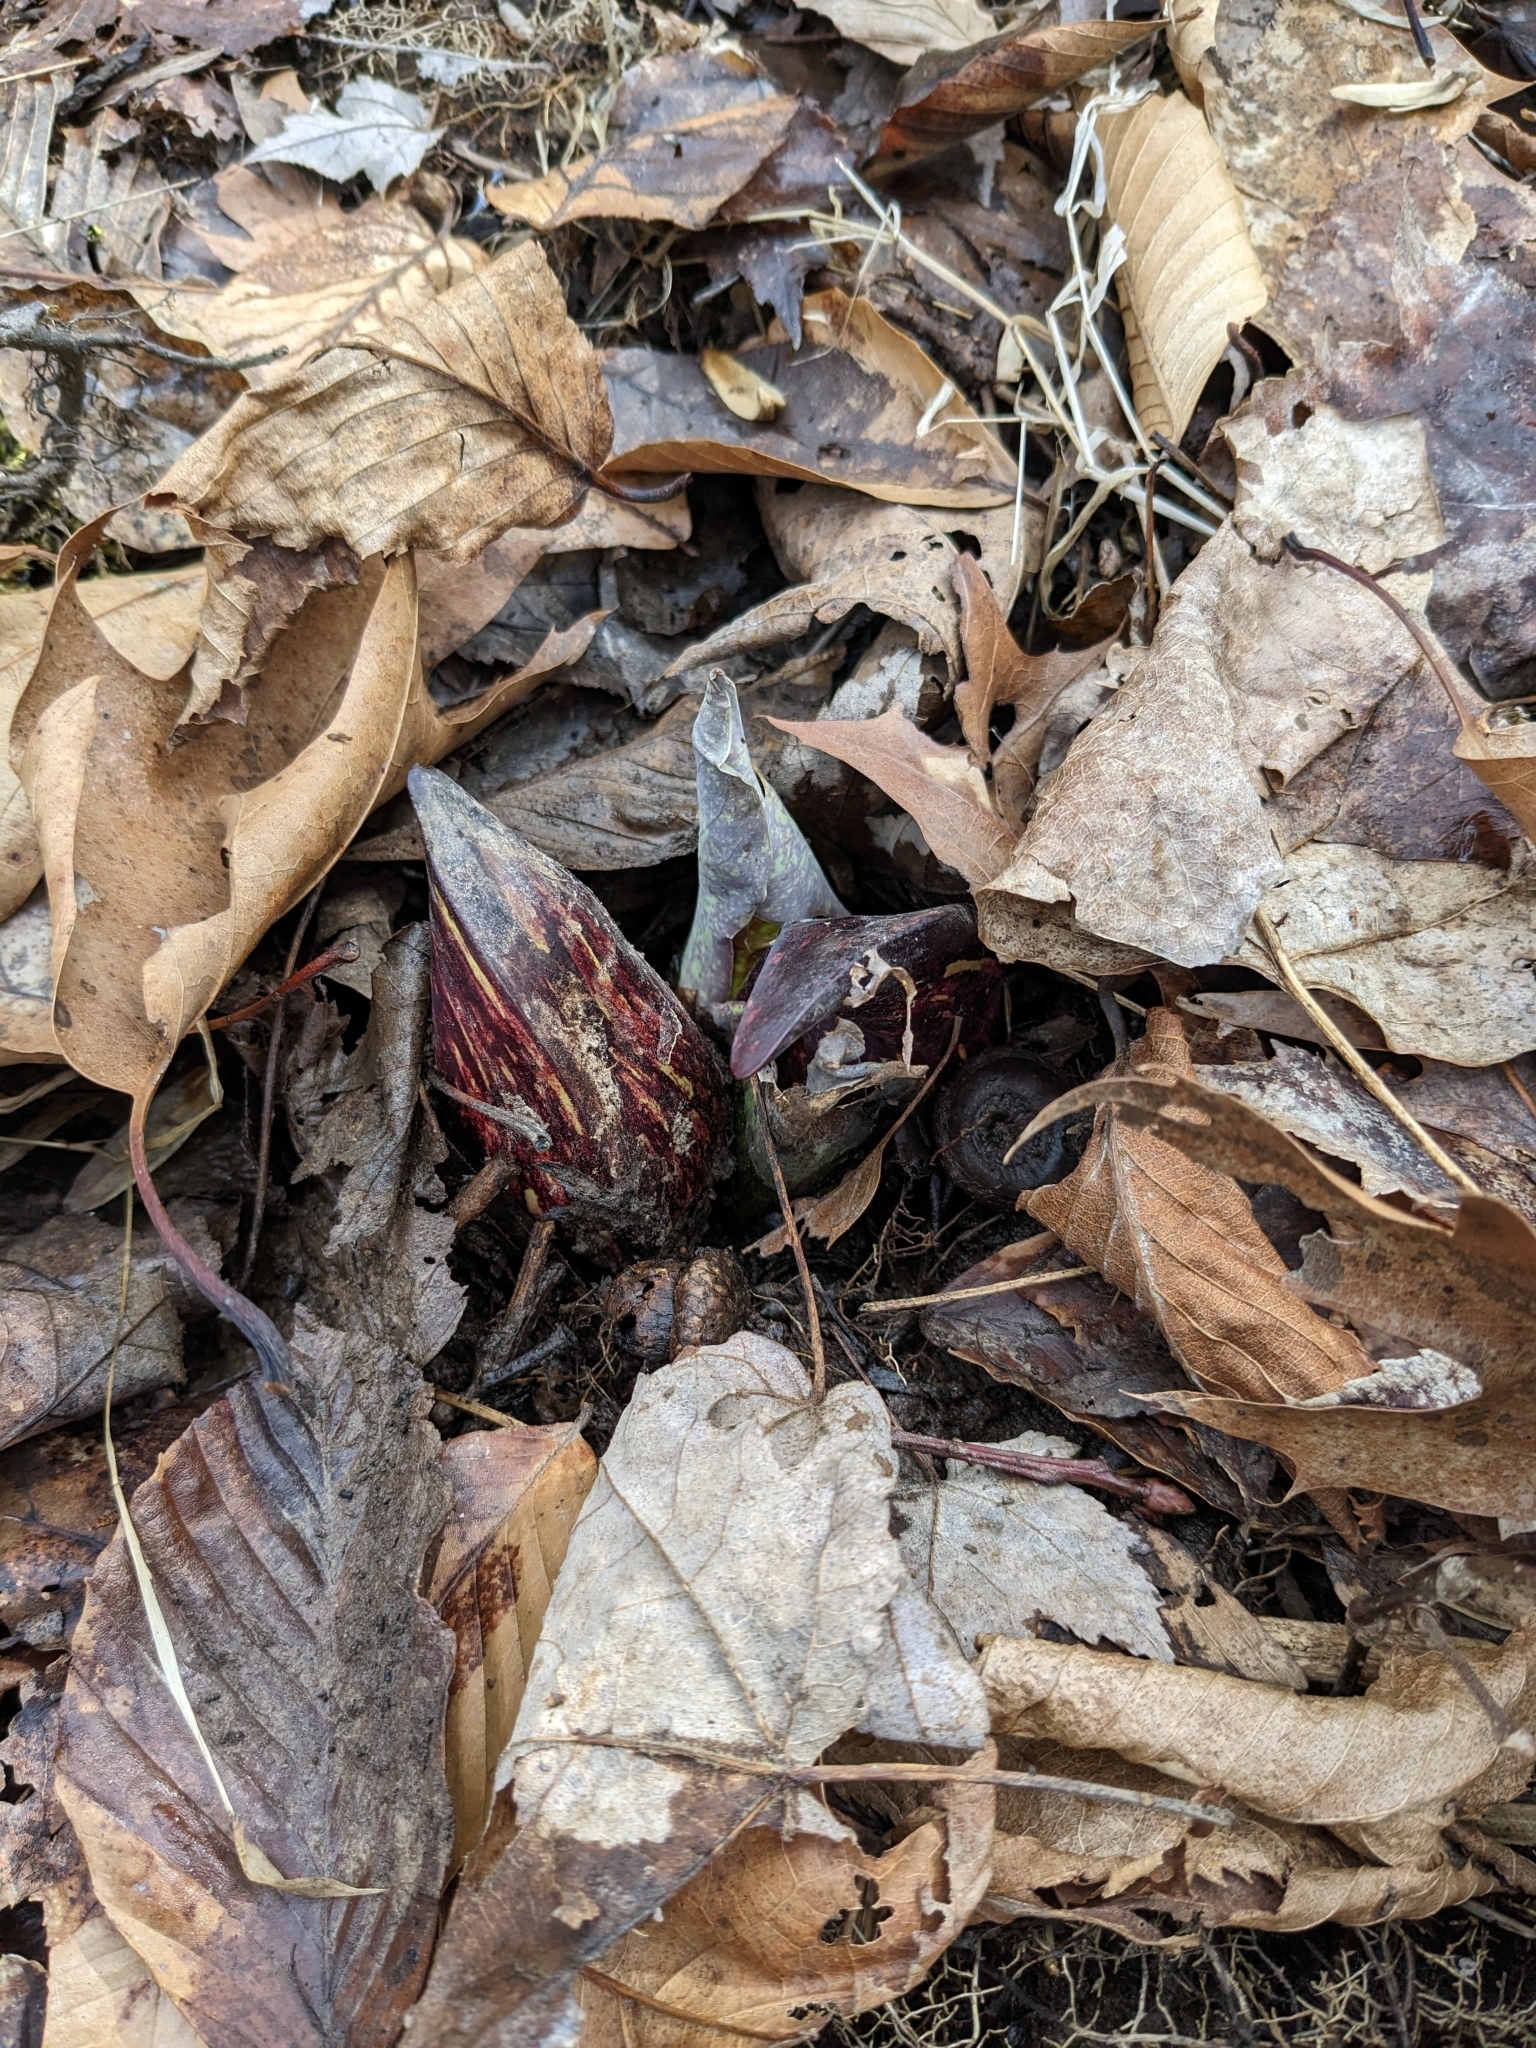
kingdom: Plantae
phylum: Tracheophyta
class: Liliopsida
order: Alismatales
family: Araceae
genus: Symplocarpus
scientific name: Symplocarpus foetidus
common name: Eastern skunk cabbage
